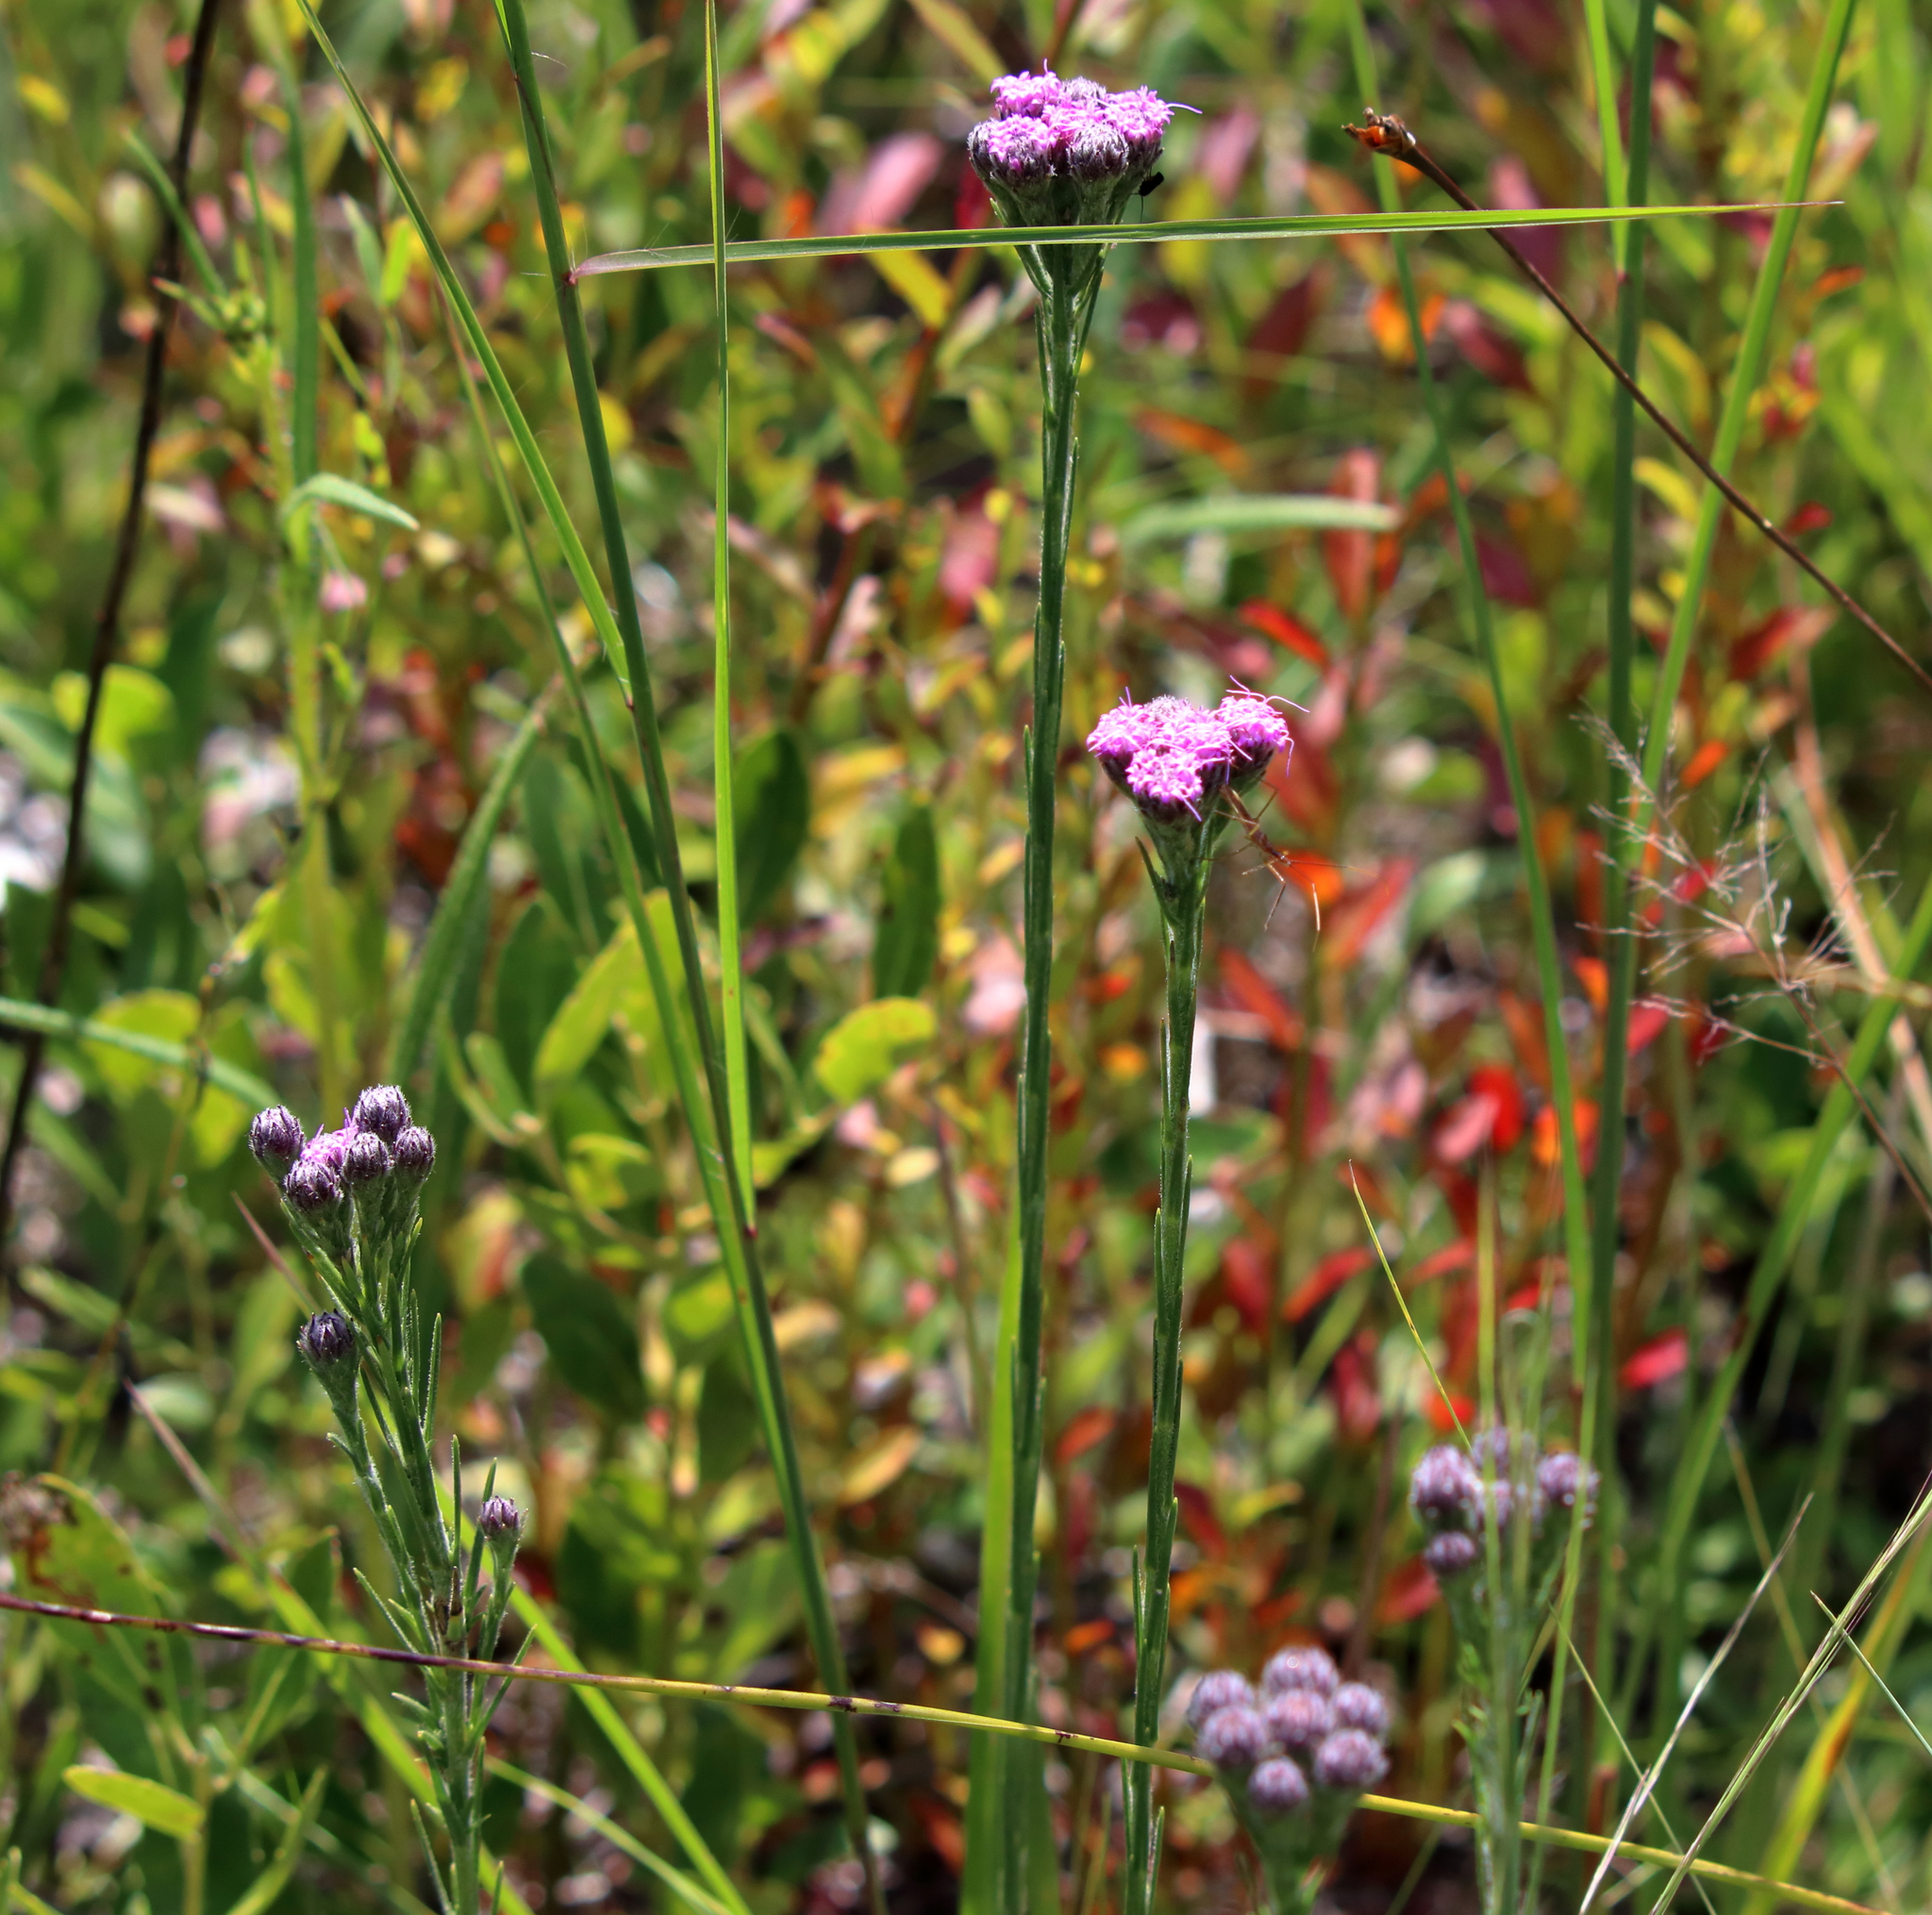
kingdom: Plantae
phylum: Tracheophyta
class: Magnoliopsida
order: Asterales
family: Asteraceae
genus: Carphephorus
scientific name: Carphephorus pseudoliatris
